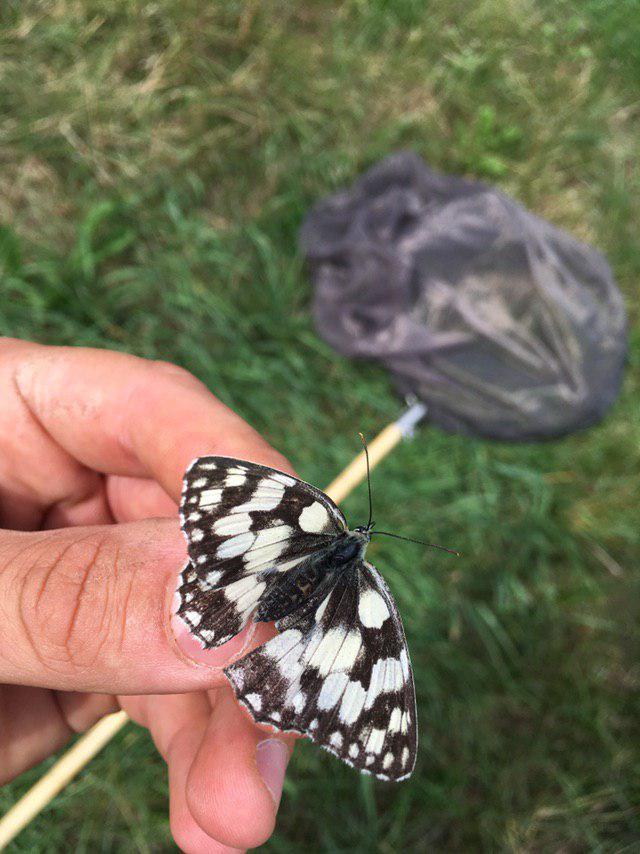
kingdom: Animalia
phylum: Arthropoda
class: Insecta
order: Lepidoptera
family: Nymphalidae
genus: Melanargia
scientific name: Melanargia galathea
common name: Marbled white
